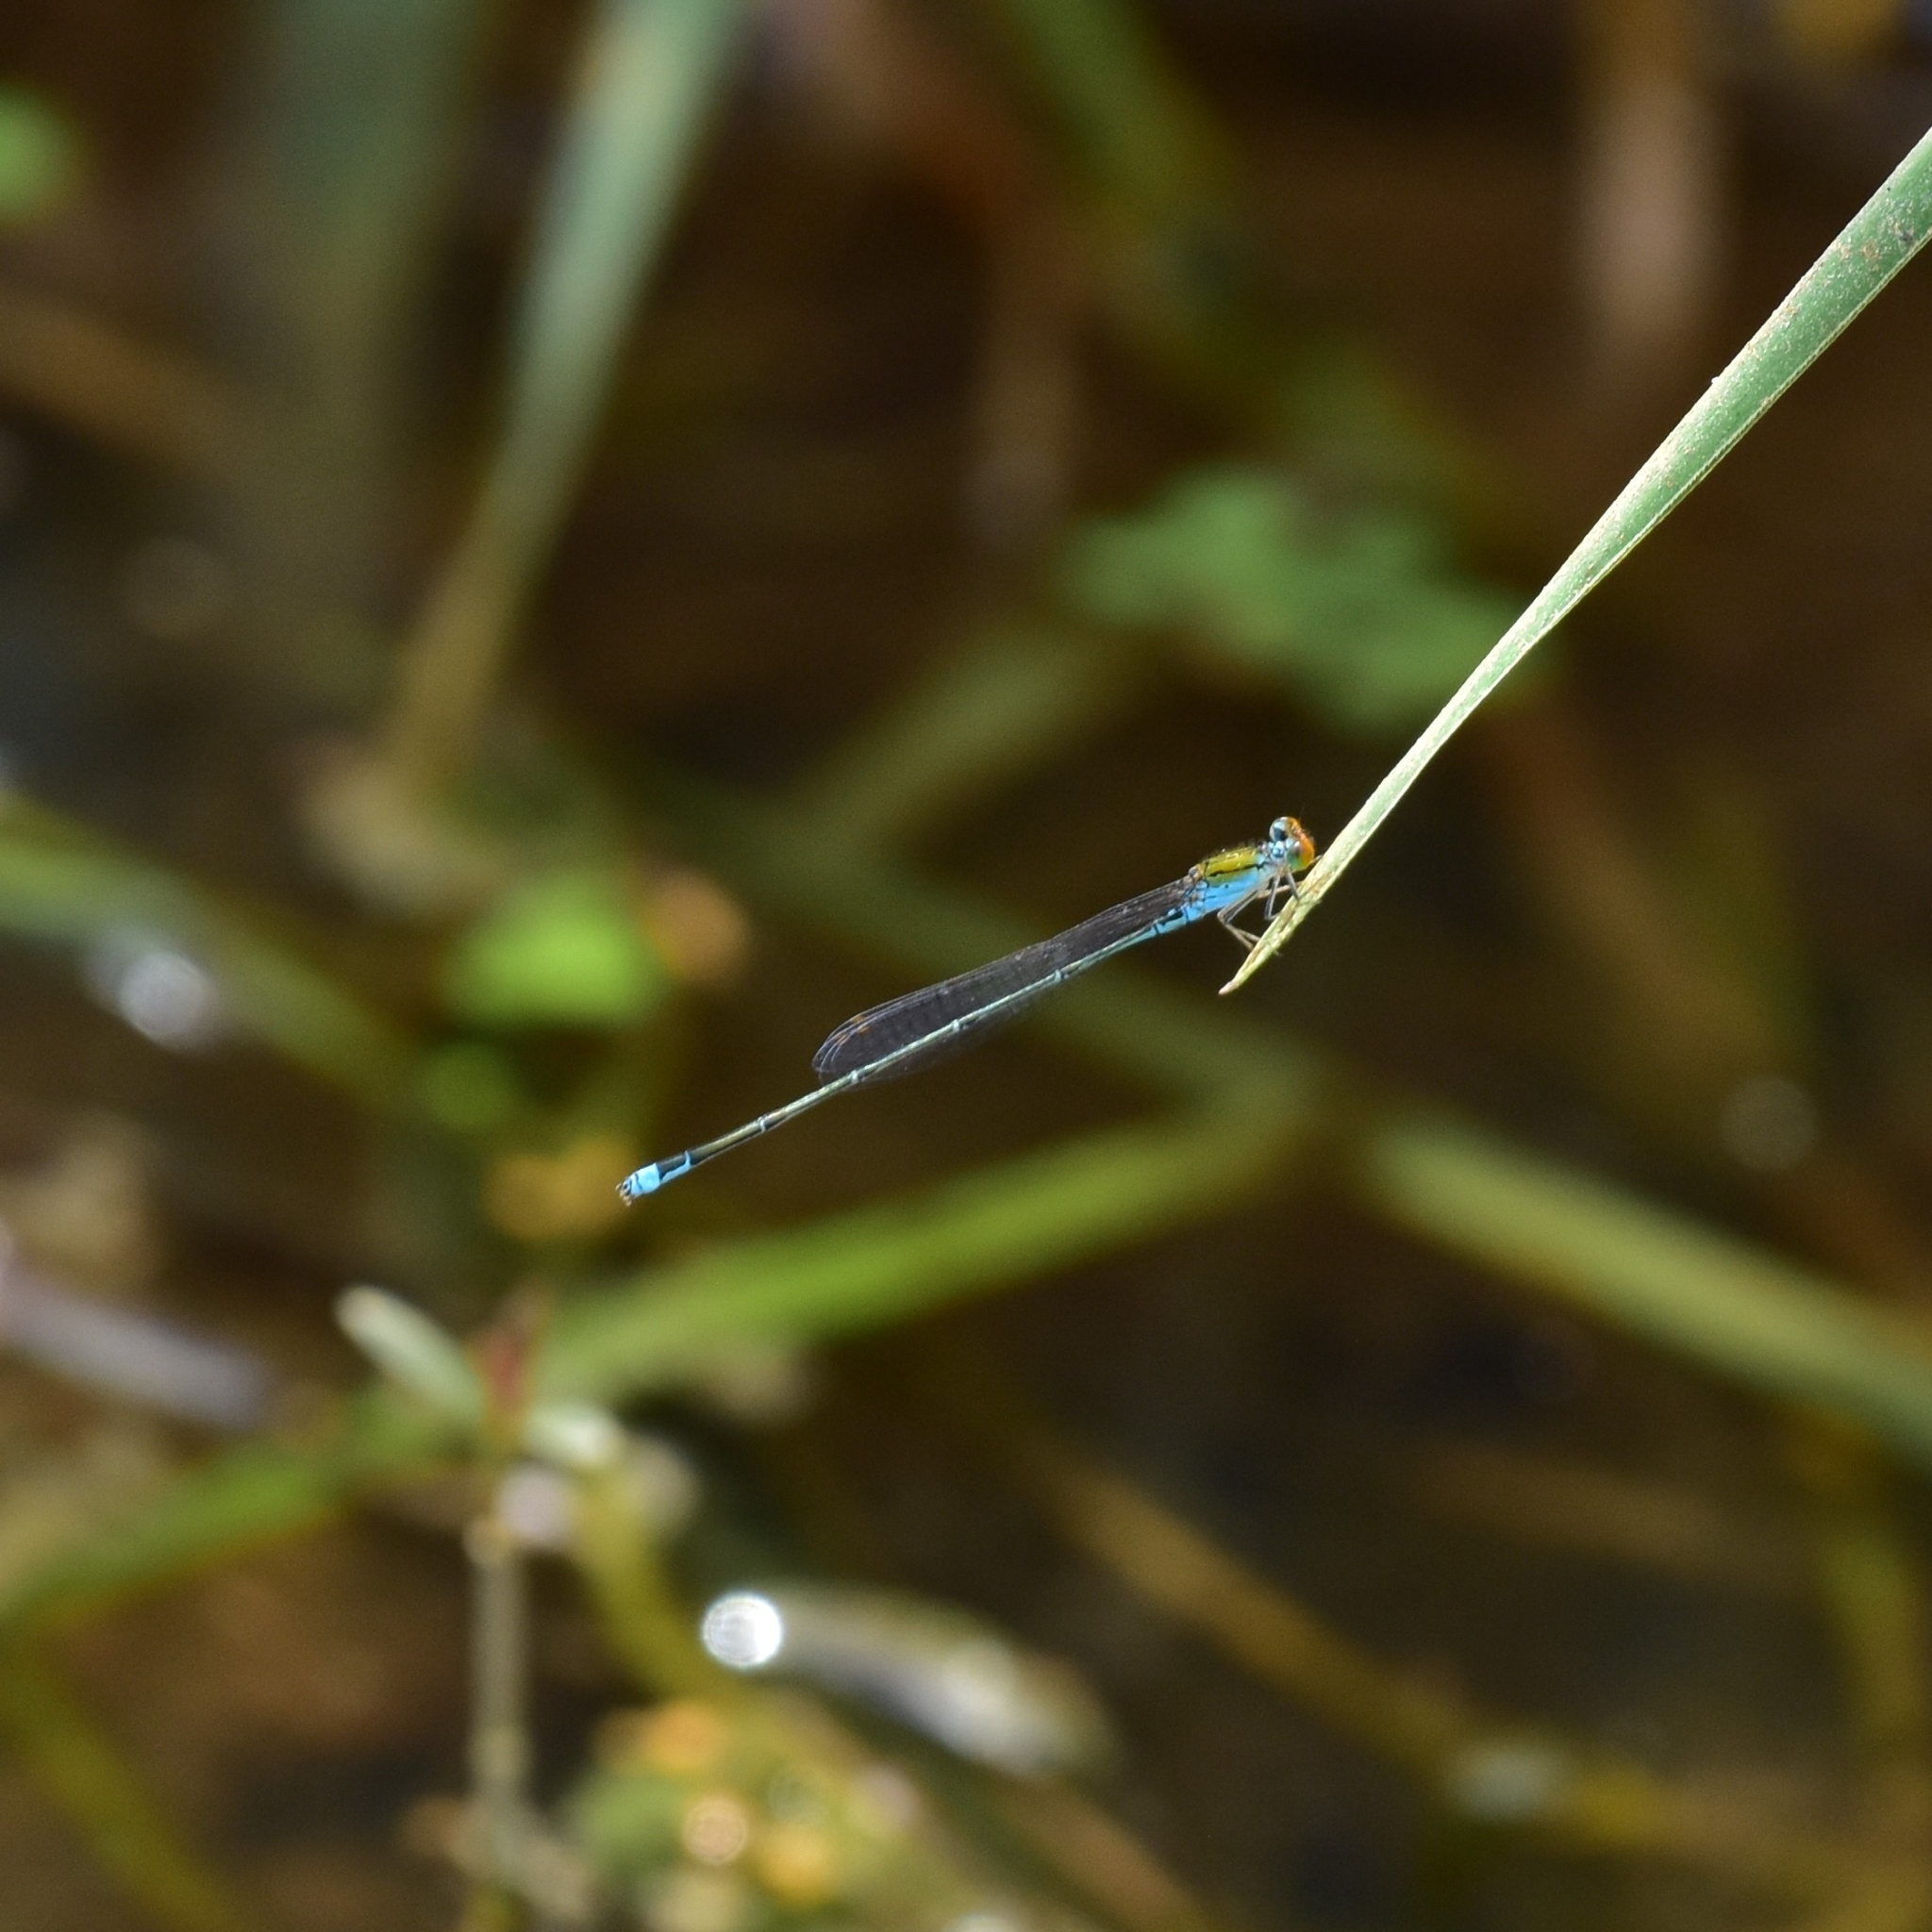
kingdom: Animalia
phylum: Arthropoda
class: Insecta
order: Odonata
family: Coenagrionidae
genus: Pseudagrion
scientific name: Pseudagrion rubriceps
